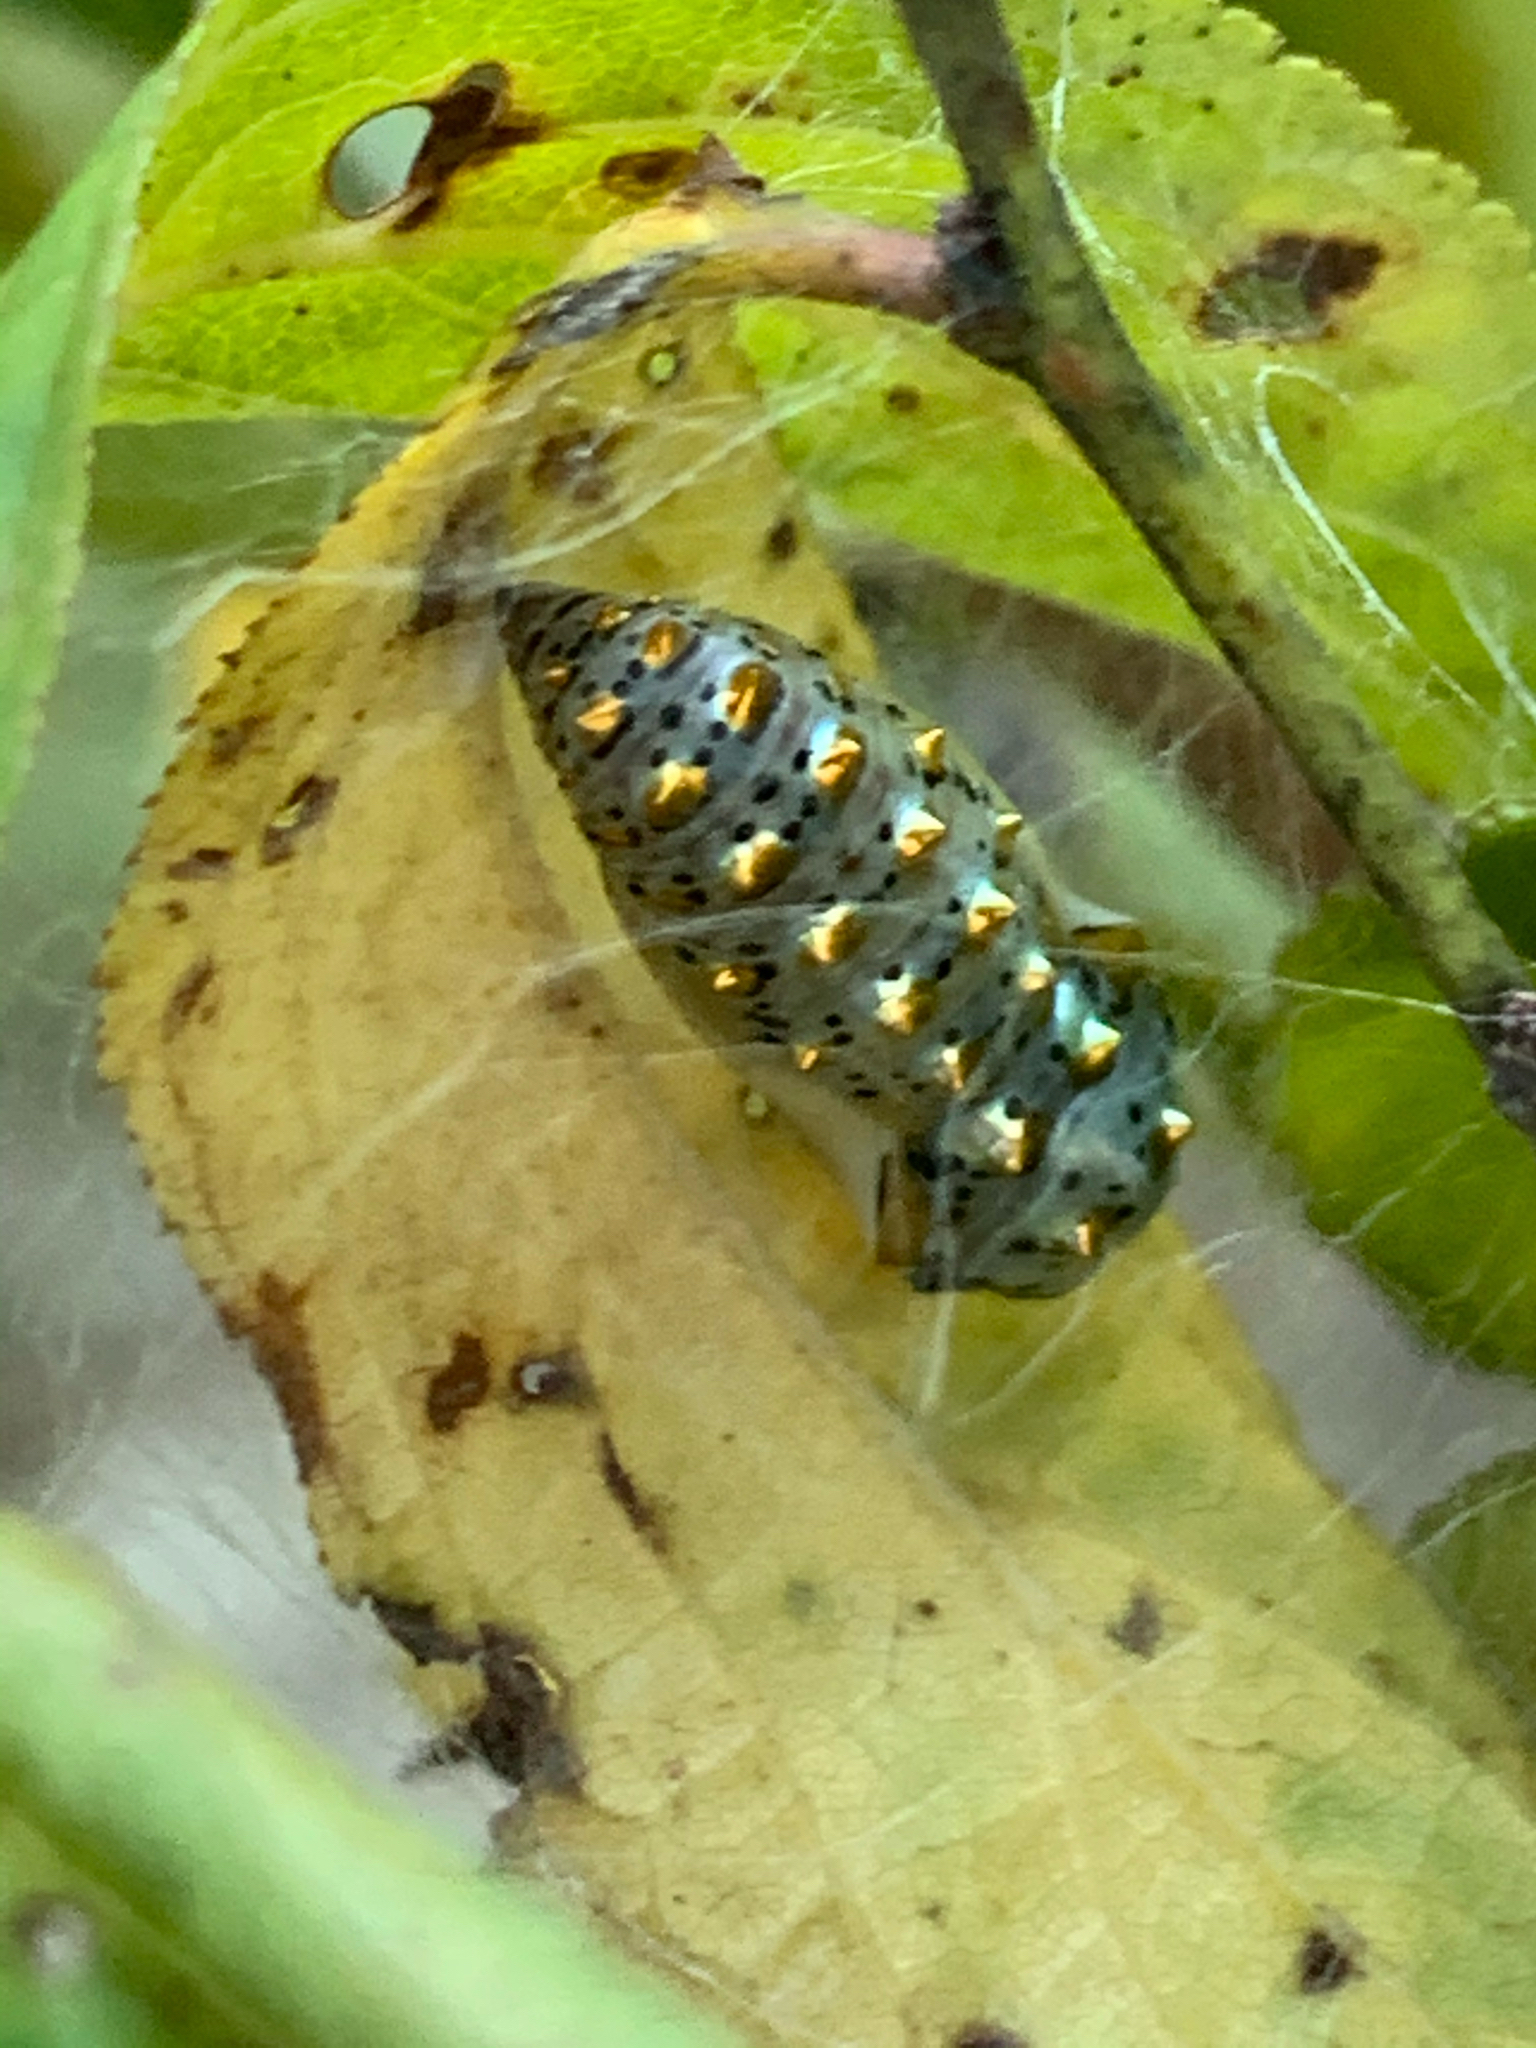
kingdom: Animalia
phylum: Arthropoda
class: Insecta
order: Lepidoptera
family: Nymphalidae
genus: Euptoieta
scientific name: Euptoieta claudia
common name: Variegated fritillary
